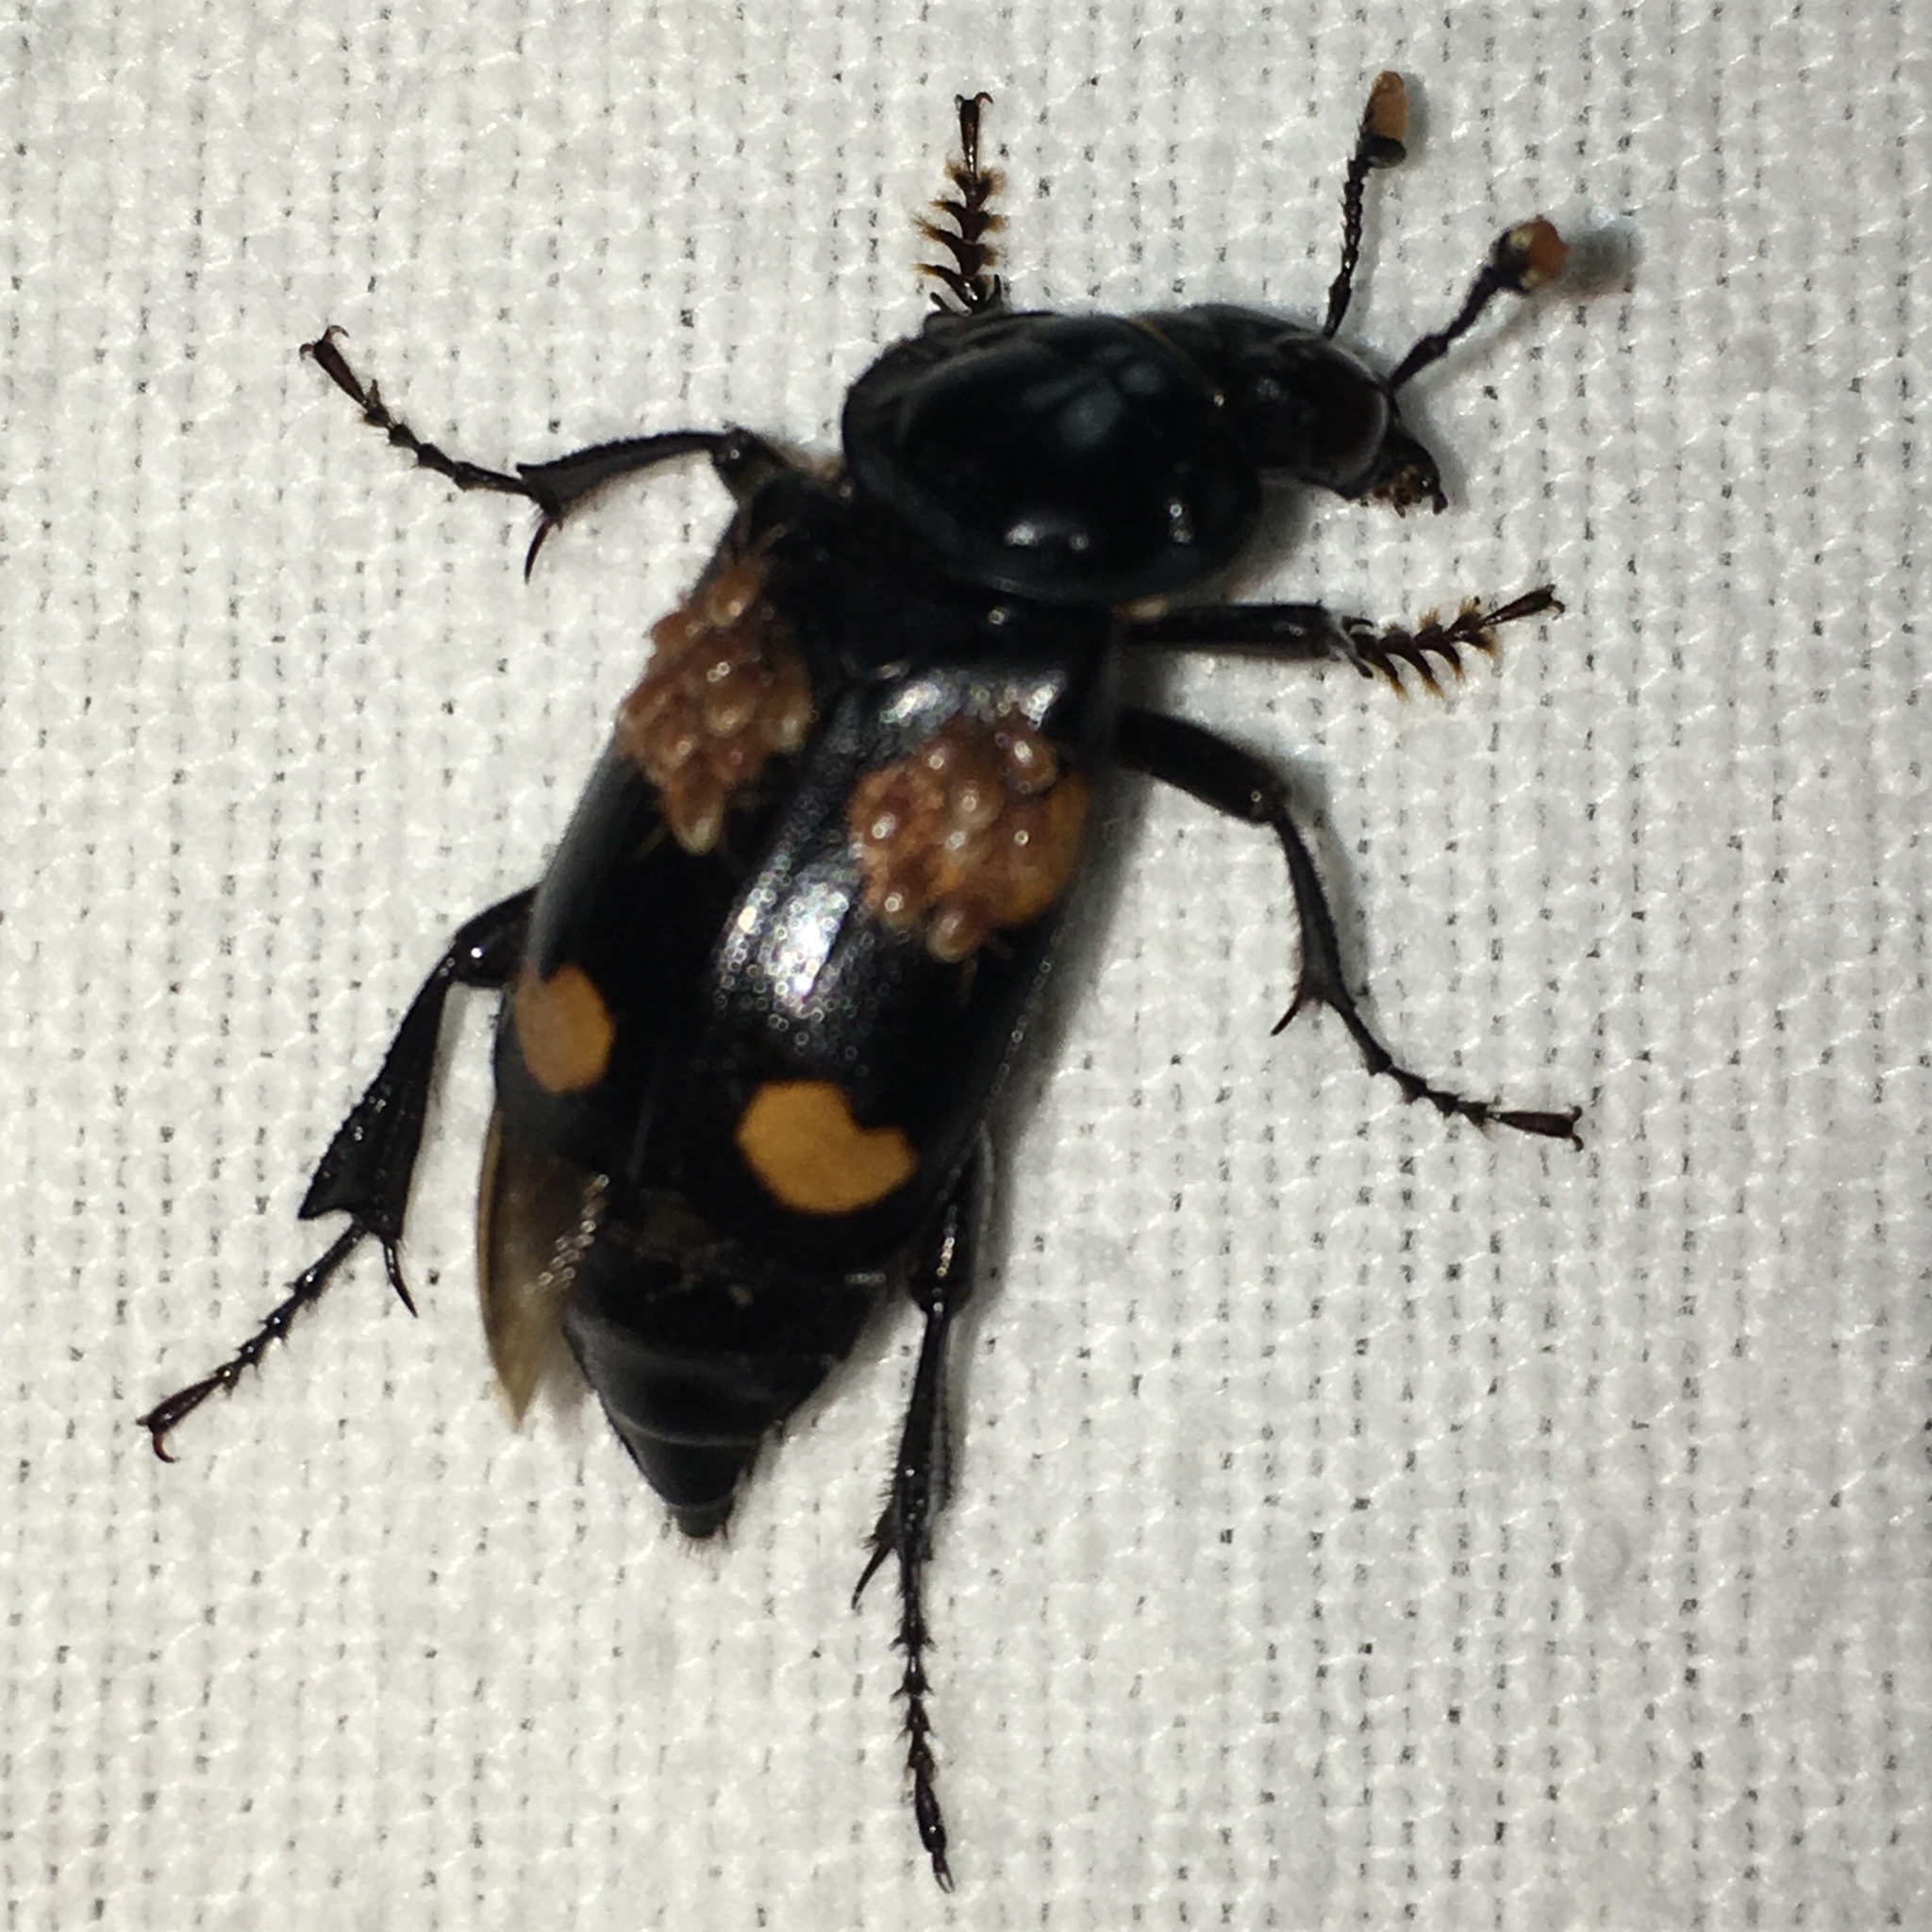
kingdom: Animalia
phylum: Arthropoda
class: Insecta
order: Coleoptera
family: Staphylinidae
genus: Nicrophorus
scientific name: Nicrophorus orbicollis
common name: Roundneck sexton beetle
